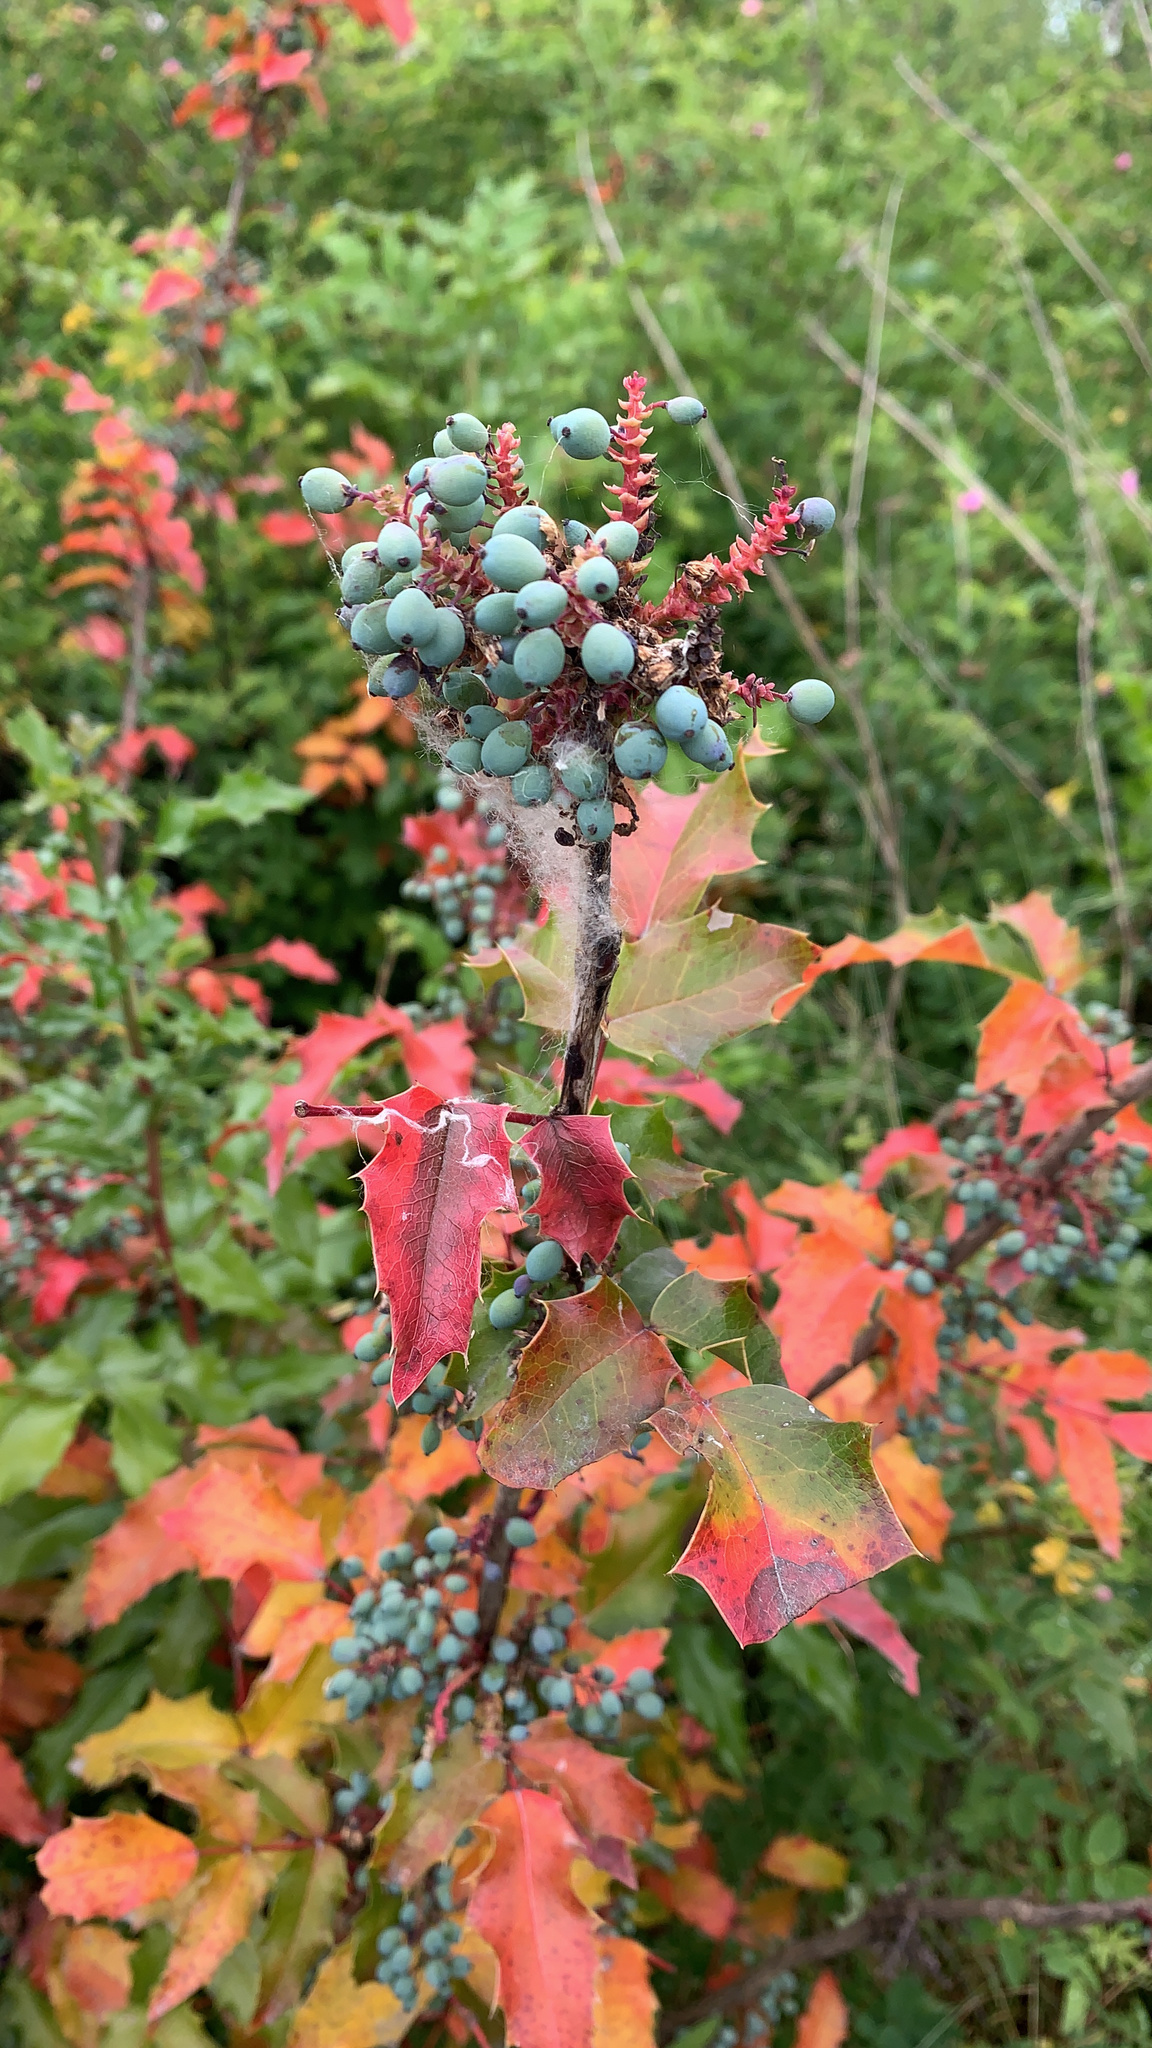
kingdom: Plantae
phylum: Tracheophyta
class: Magnoliopsida
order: Ranunculales
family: Berberidaceae
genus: Mahonia
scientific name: Mahonia aquifolium
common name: Oregon-grape
